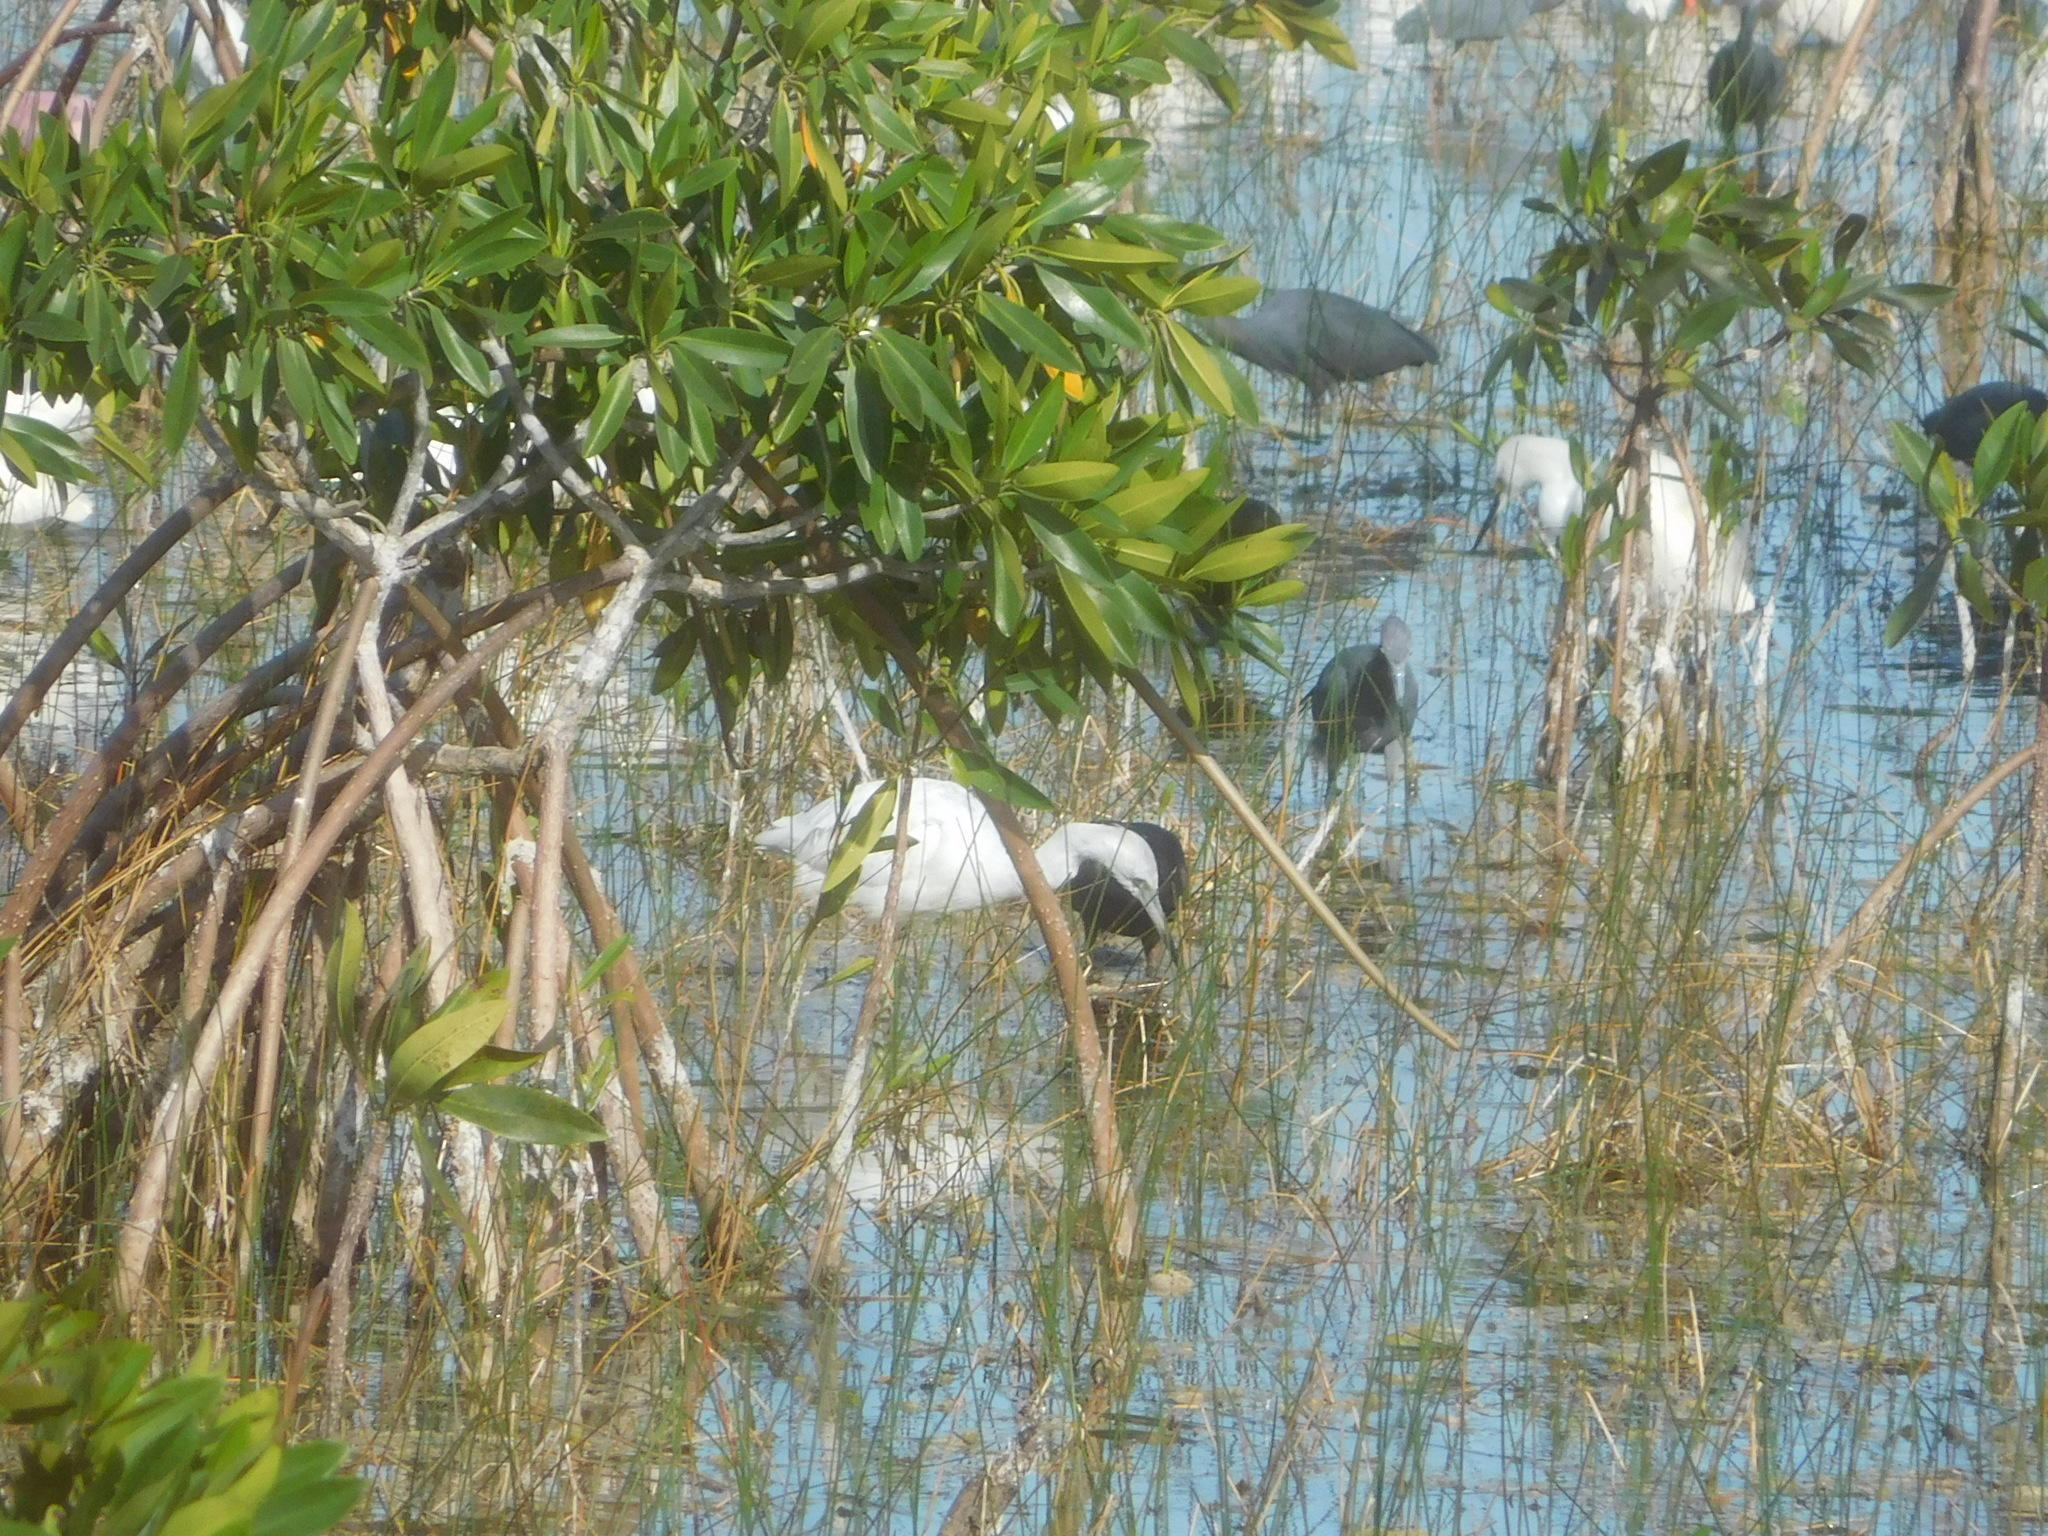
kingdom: Animalia
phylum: Chordata
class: Aves
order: Pelecaniformes
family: Ardeidae
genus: Egretta
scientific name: Egretta caerulea
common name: Little blue heron
